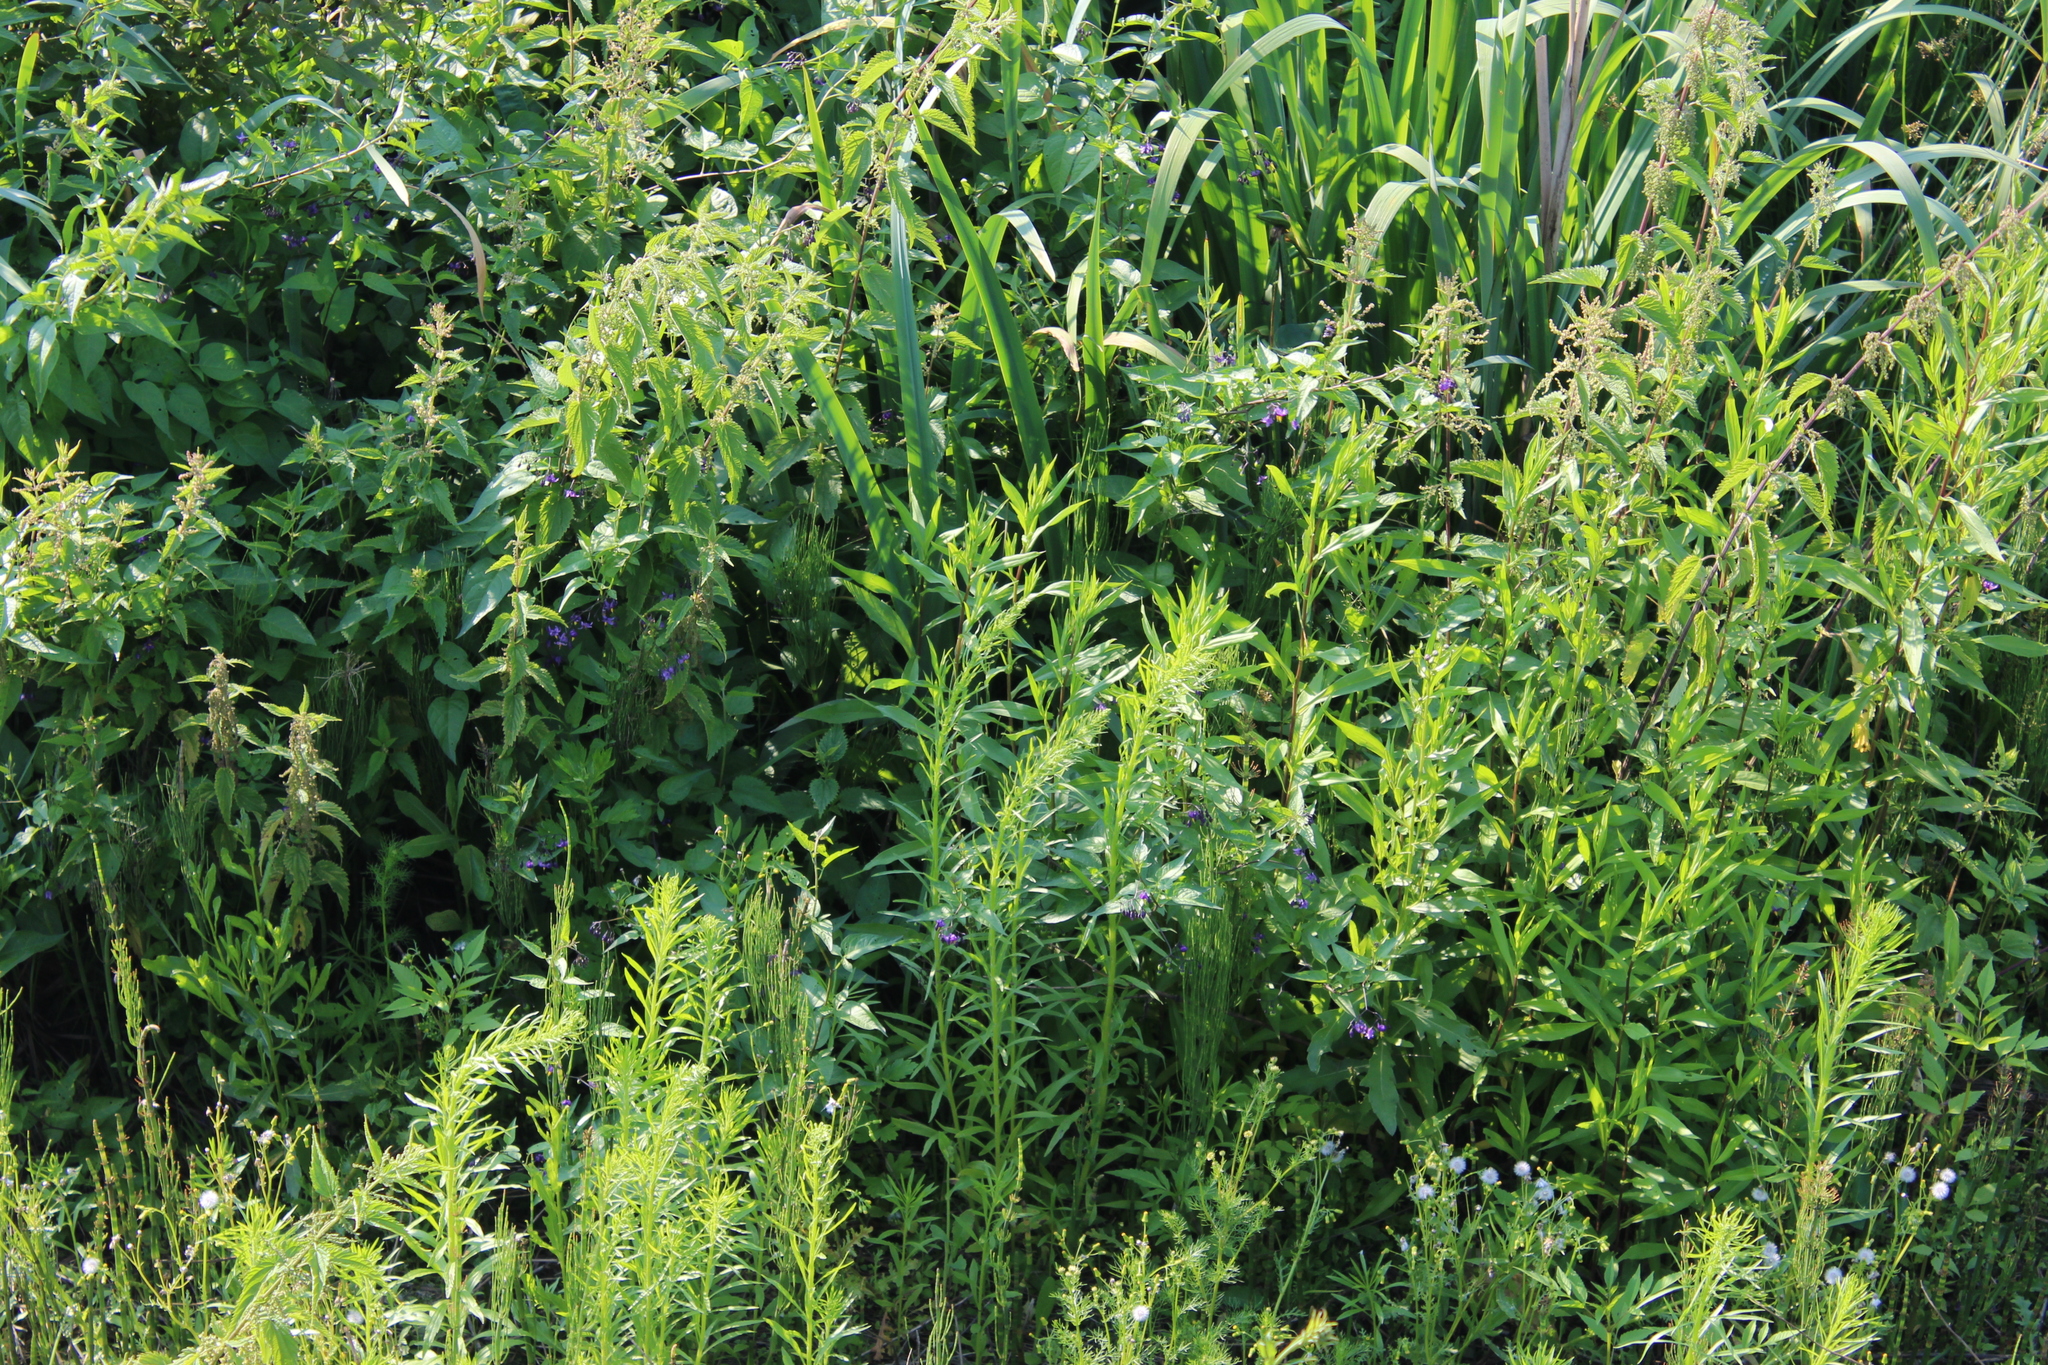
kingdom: Plantae
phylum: Tracheophyta
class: Magnoliopsida
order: Solanales
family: Solanaceae
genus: Solanum
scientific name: Solanum dulcamara
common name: Climbing nightshade
